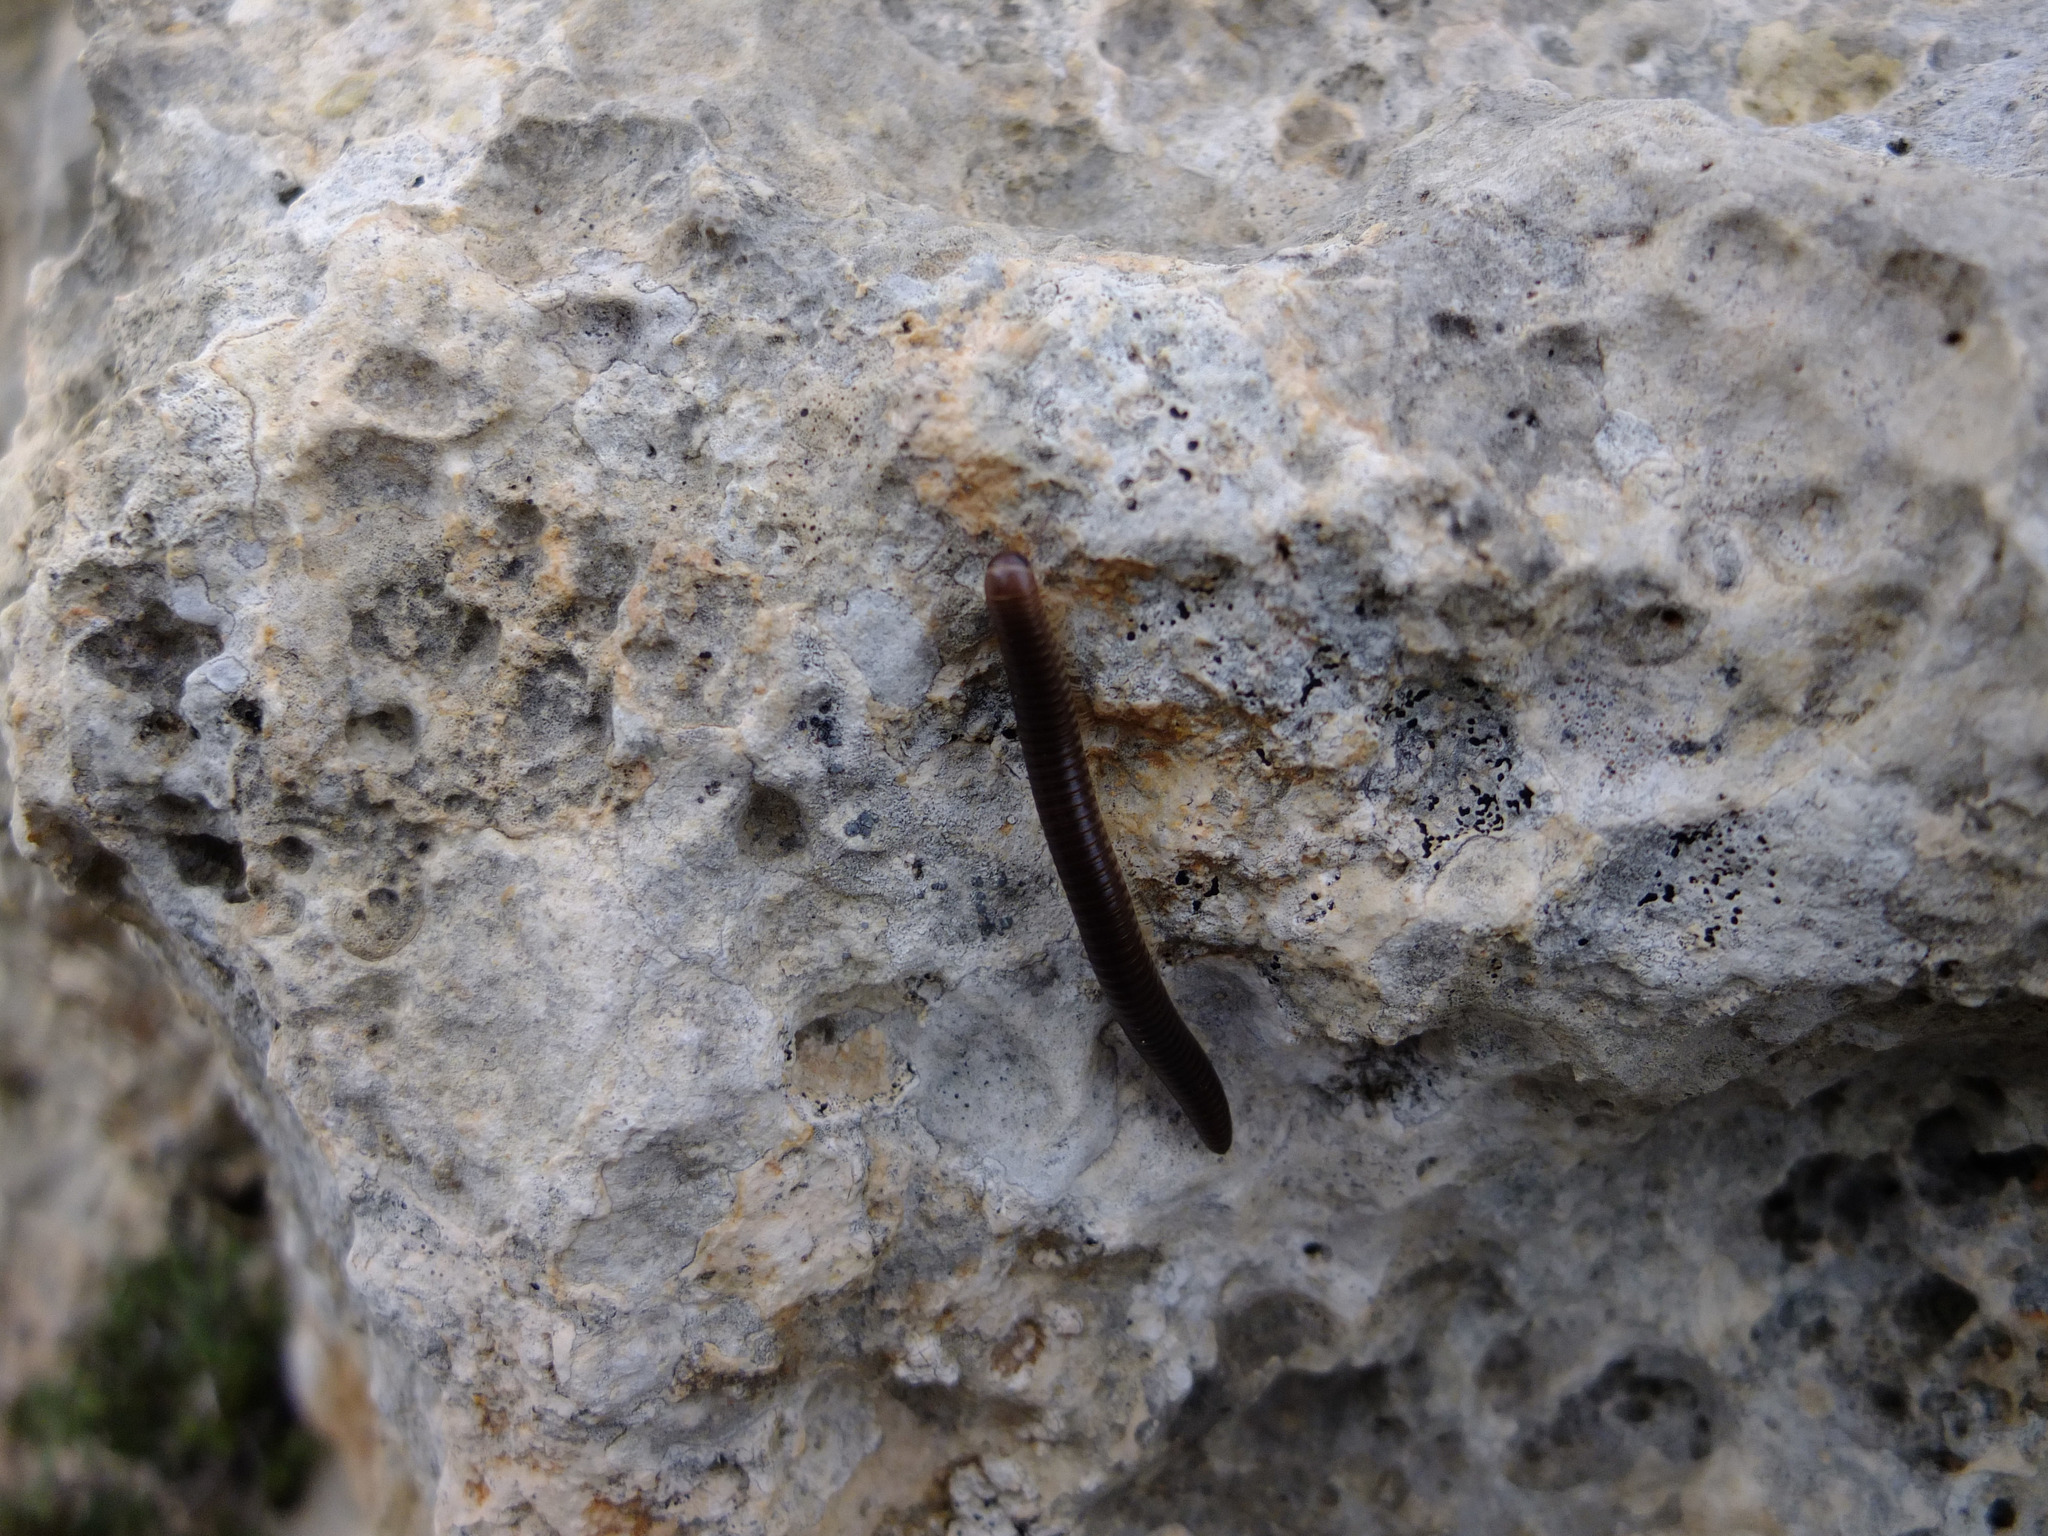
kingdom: Animalia
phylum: Arthropoda
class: Diplopoda
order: Julida
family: Julidae
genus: Pachyiulus
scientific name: Pachyiulus flavipes
